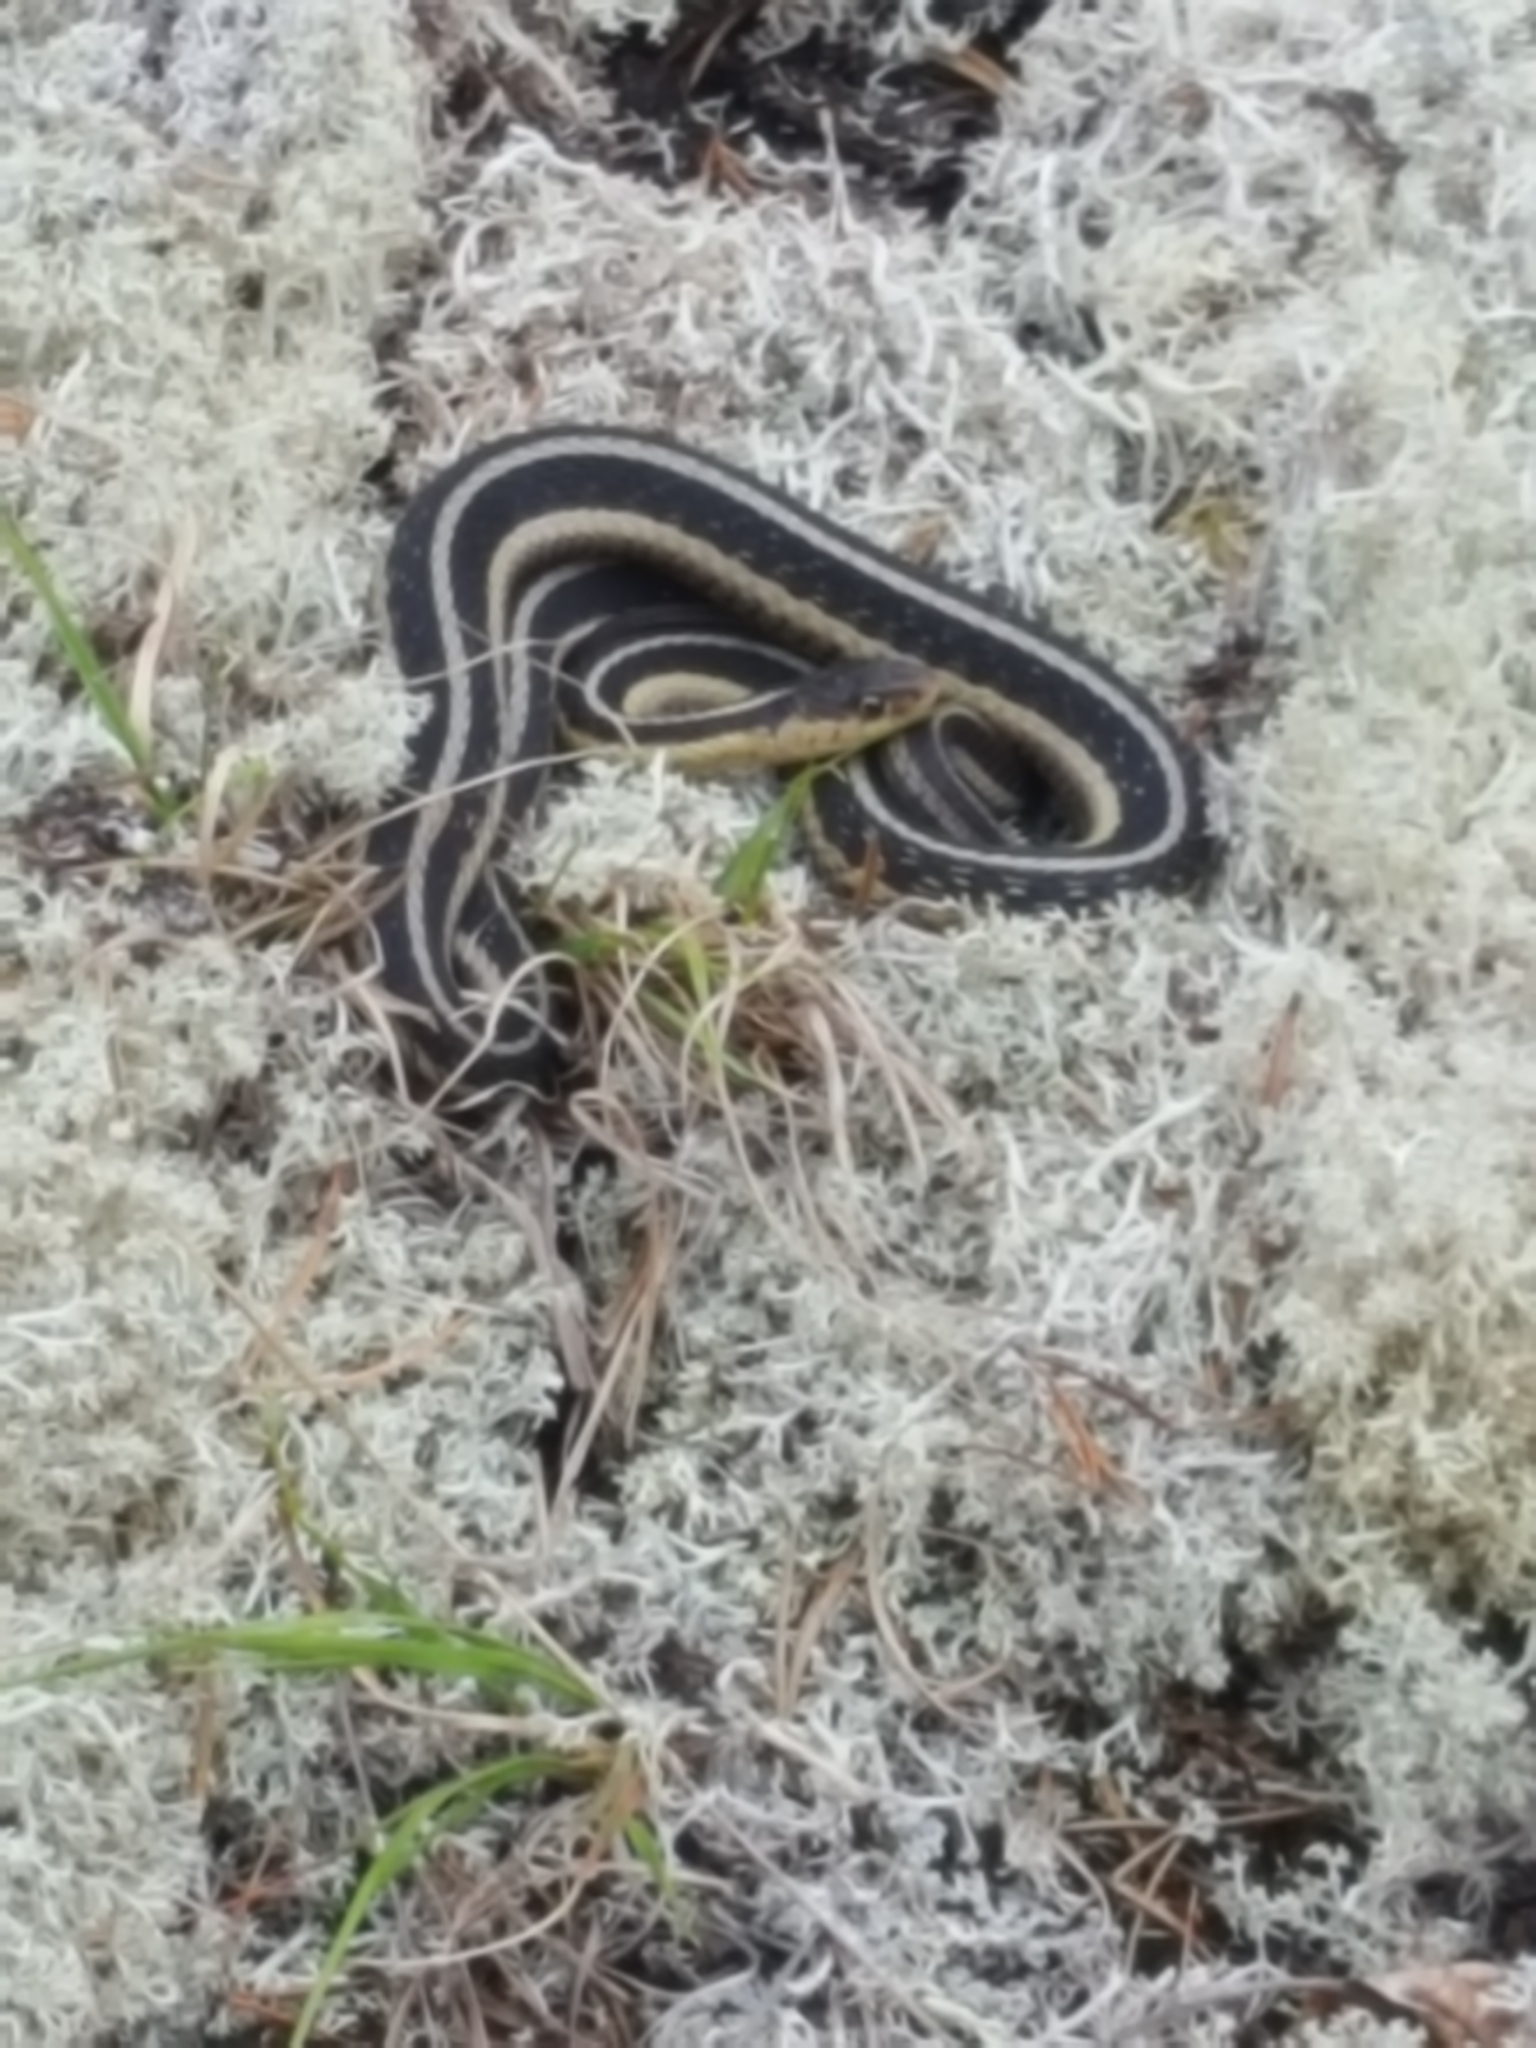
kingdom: Animalia
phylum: Chordata
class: Squamata
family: Colubridae
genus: Thamnophis
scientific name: Thamnophis sirtalis
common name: Common garter snake
